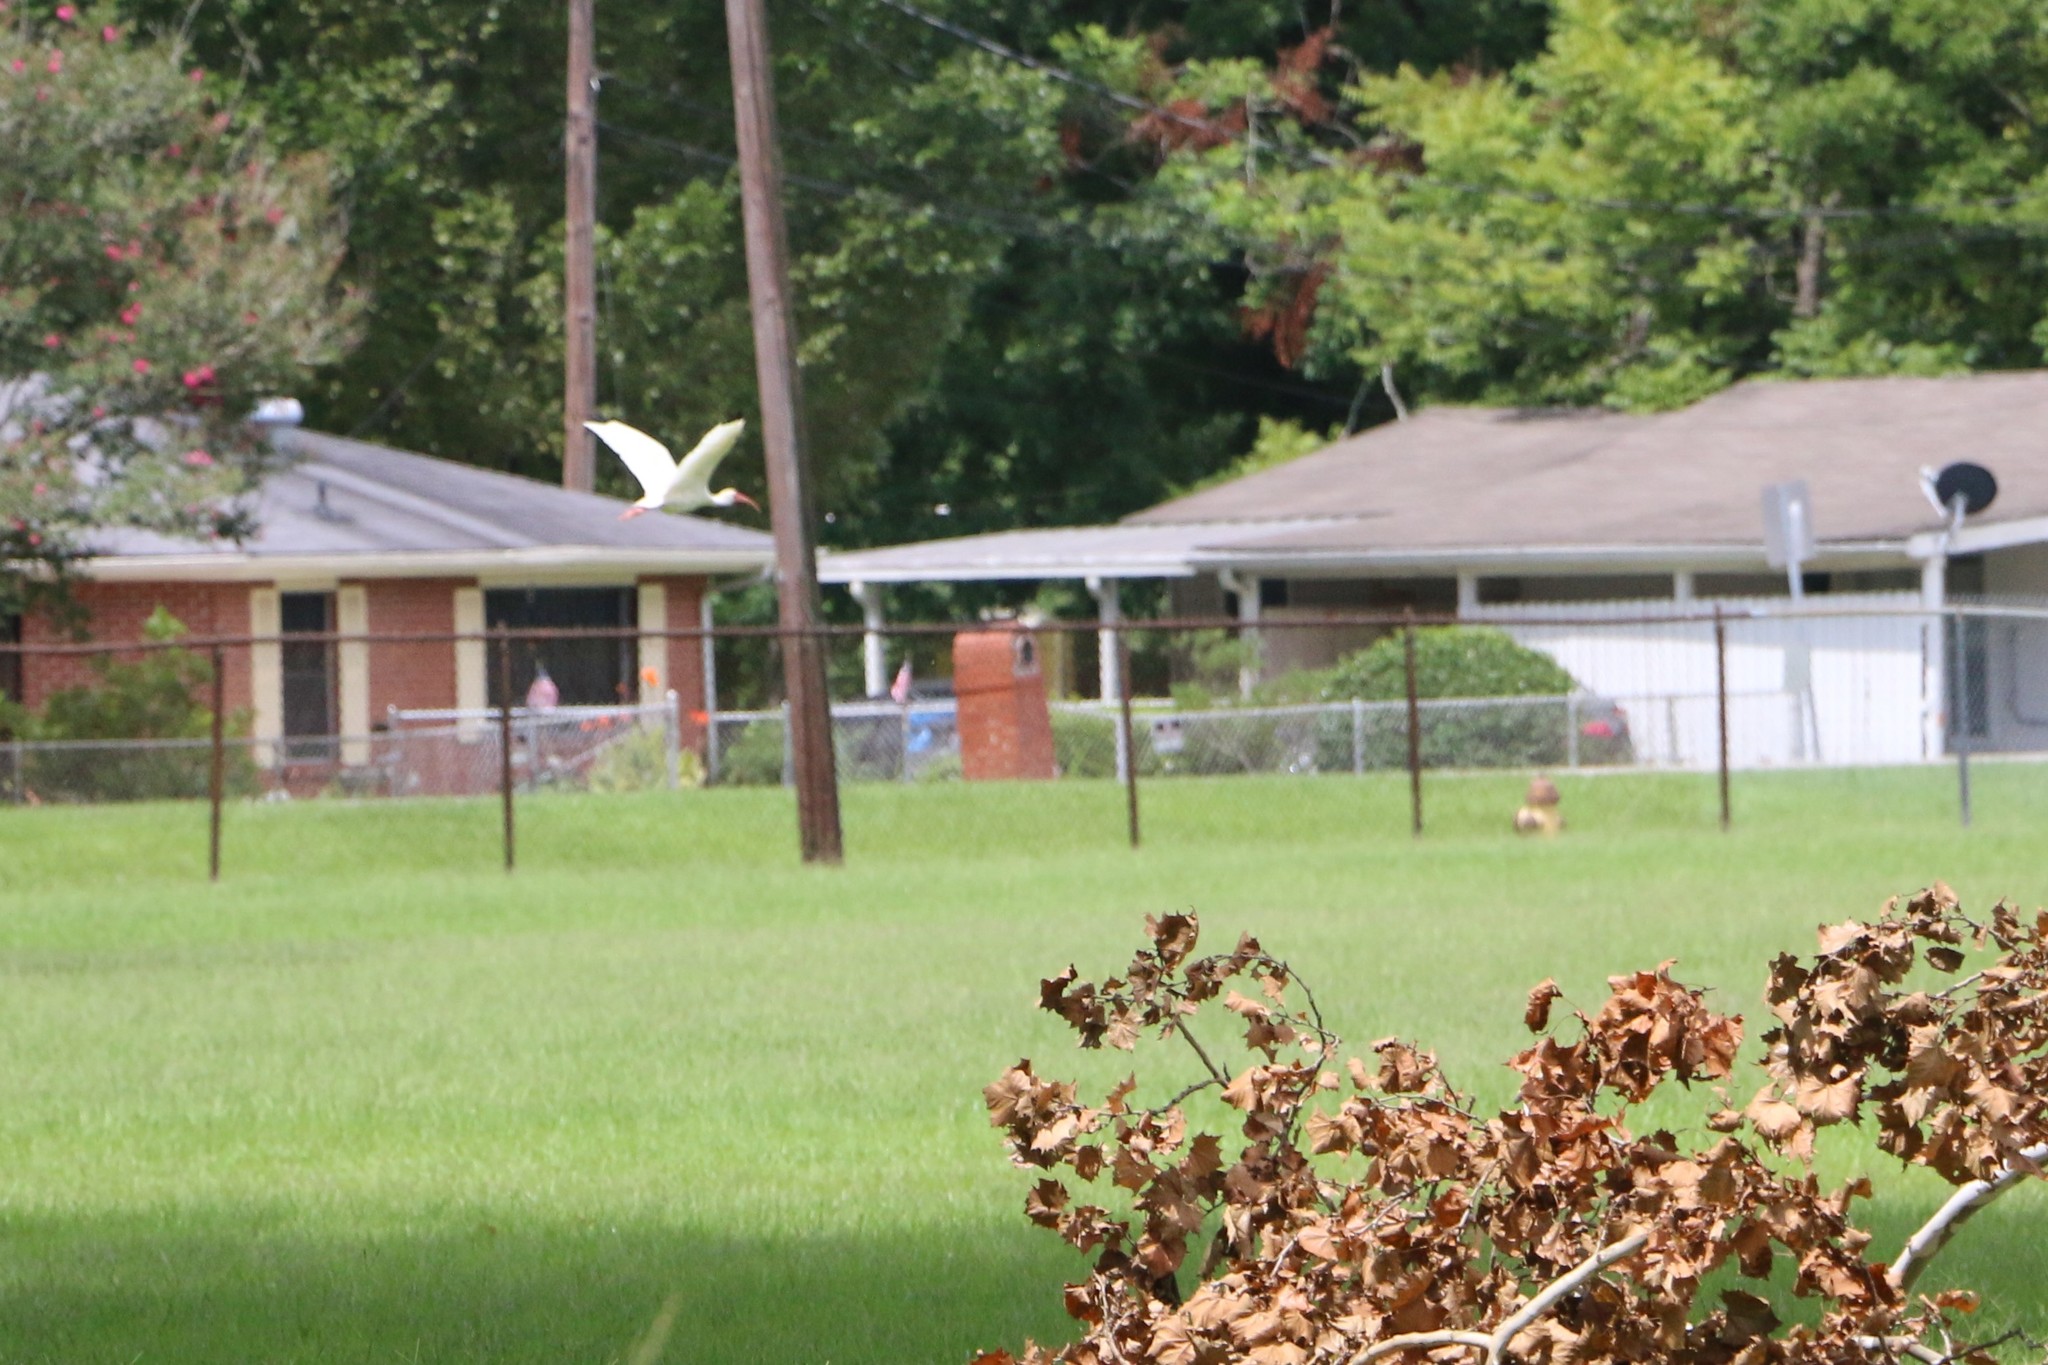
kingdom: Animalia
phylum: Chordata
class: Aves
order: Pelecaniformes
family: Threskiornithidae
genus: Eudocimus
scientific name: Eudocimus albus
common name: White ibis
